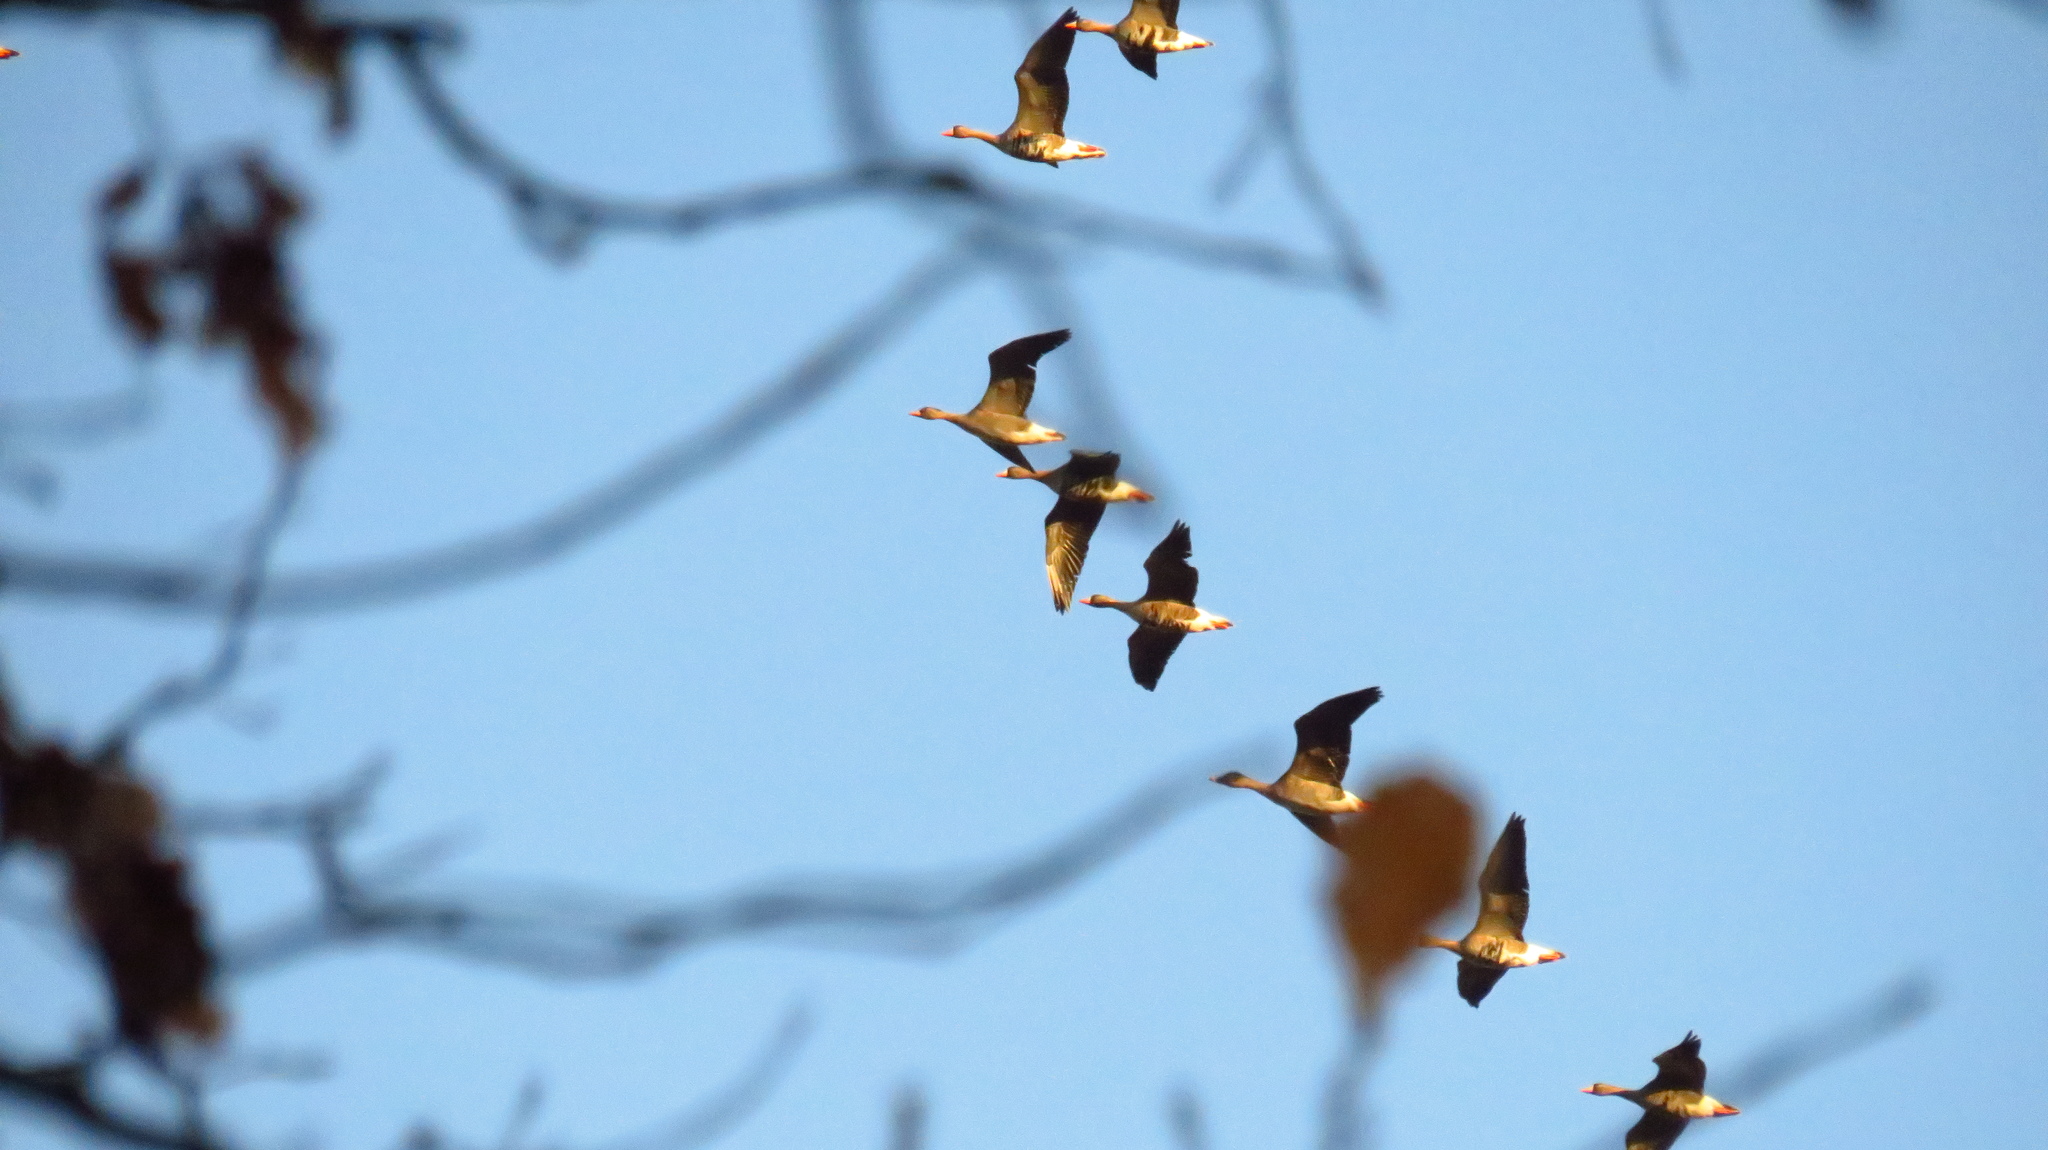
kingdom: Animalia
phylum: Chordata
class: Aves
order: Anseriformes
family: Anatidae
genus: Anser
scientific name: Anser fabalis
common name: Bean goose
